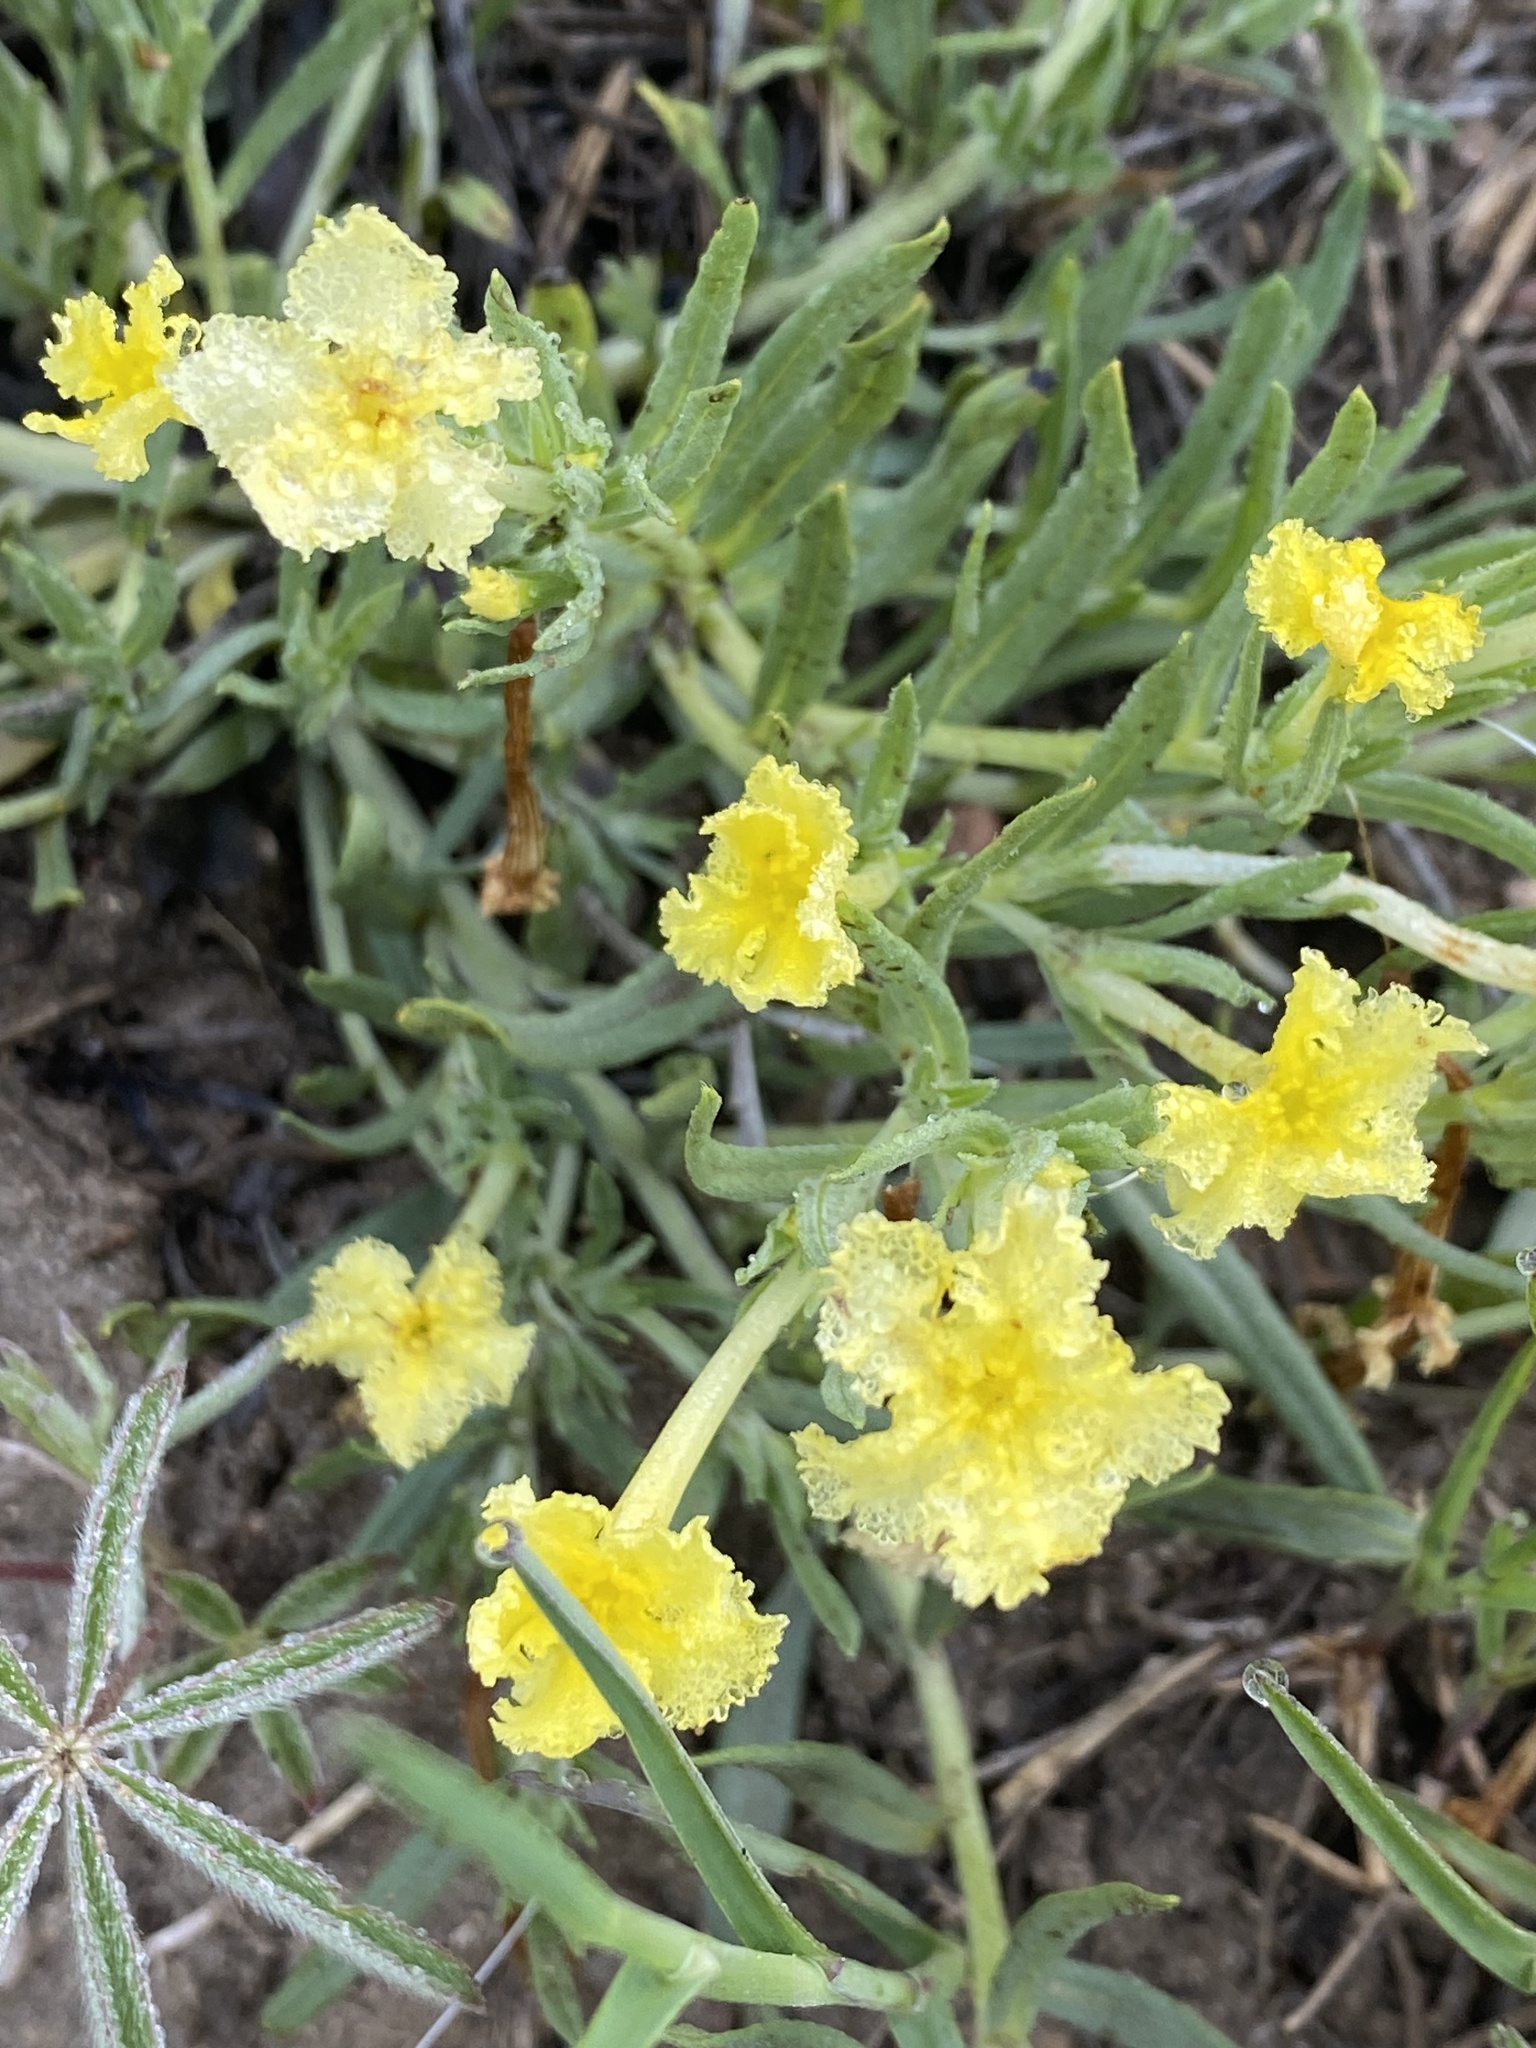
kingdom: Plantae
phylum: Tracheophyta
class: Magnoliopsida
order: Boraginales
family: Boraginaceae
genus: Lithospermum
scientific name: Lithospermum incisum
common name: Fringed gromwell
